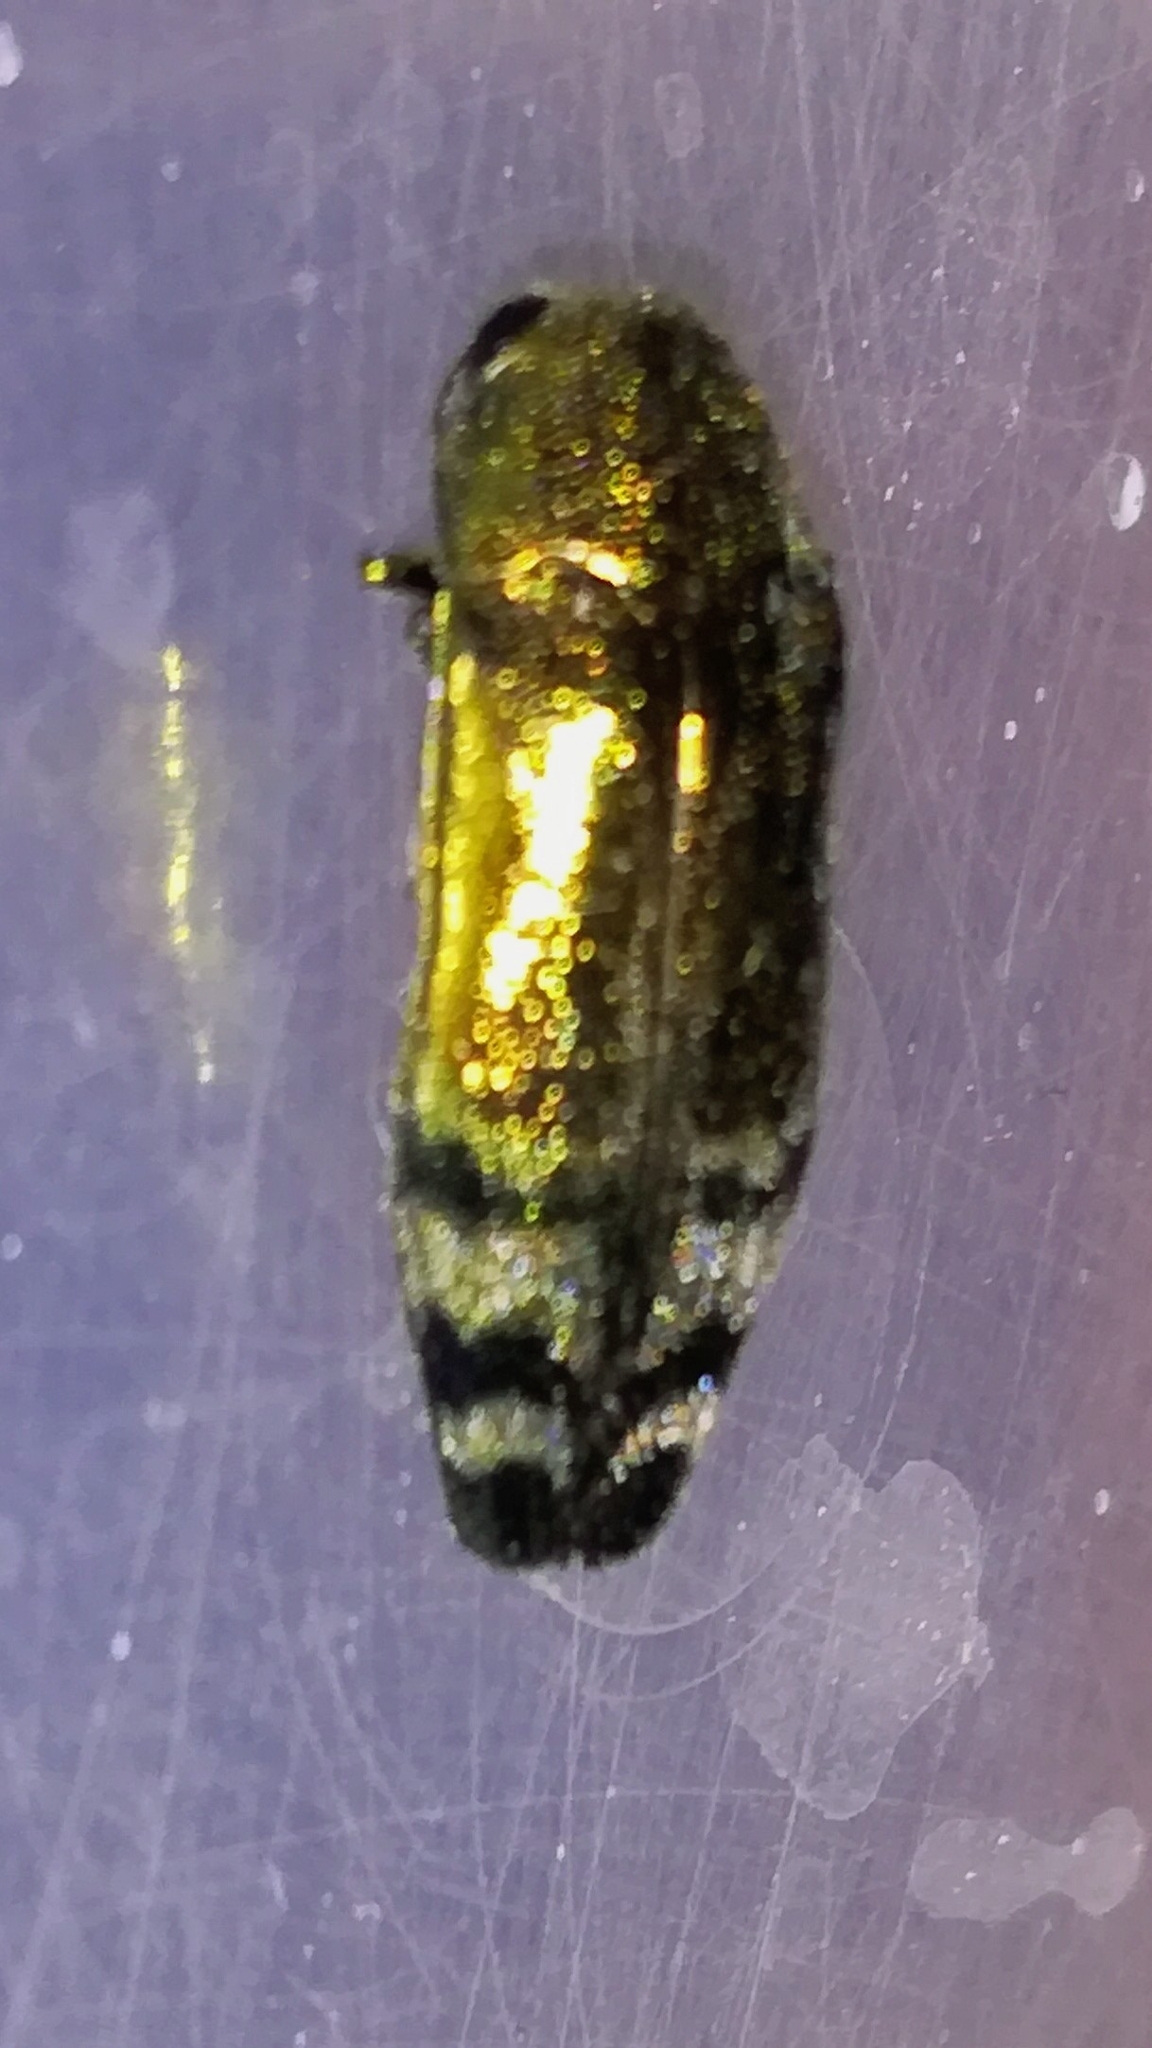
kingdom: Animalia
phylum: Arthropoda
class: Insecta
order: Coleoptera
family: Buprestidae
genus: Coraebus
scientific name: Coraebus fasciatus
